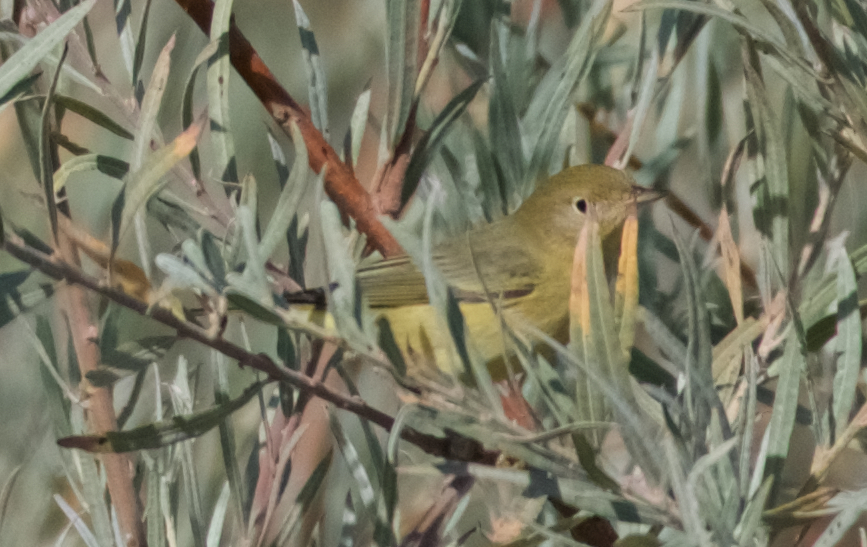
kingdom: Animalia
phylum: Chordata
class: Aves
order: Passeriformes
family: Parulidae
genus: Setophaga
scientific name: Setophaga petechia
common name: Yellow warbler
